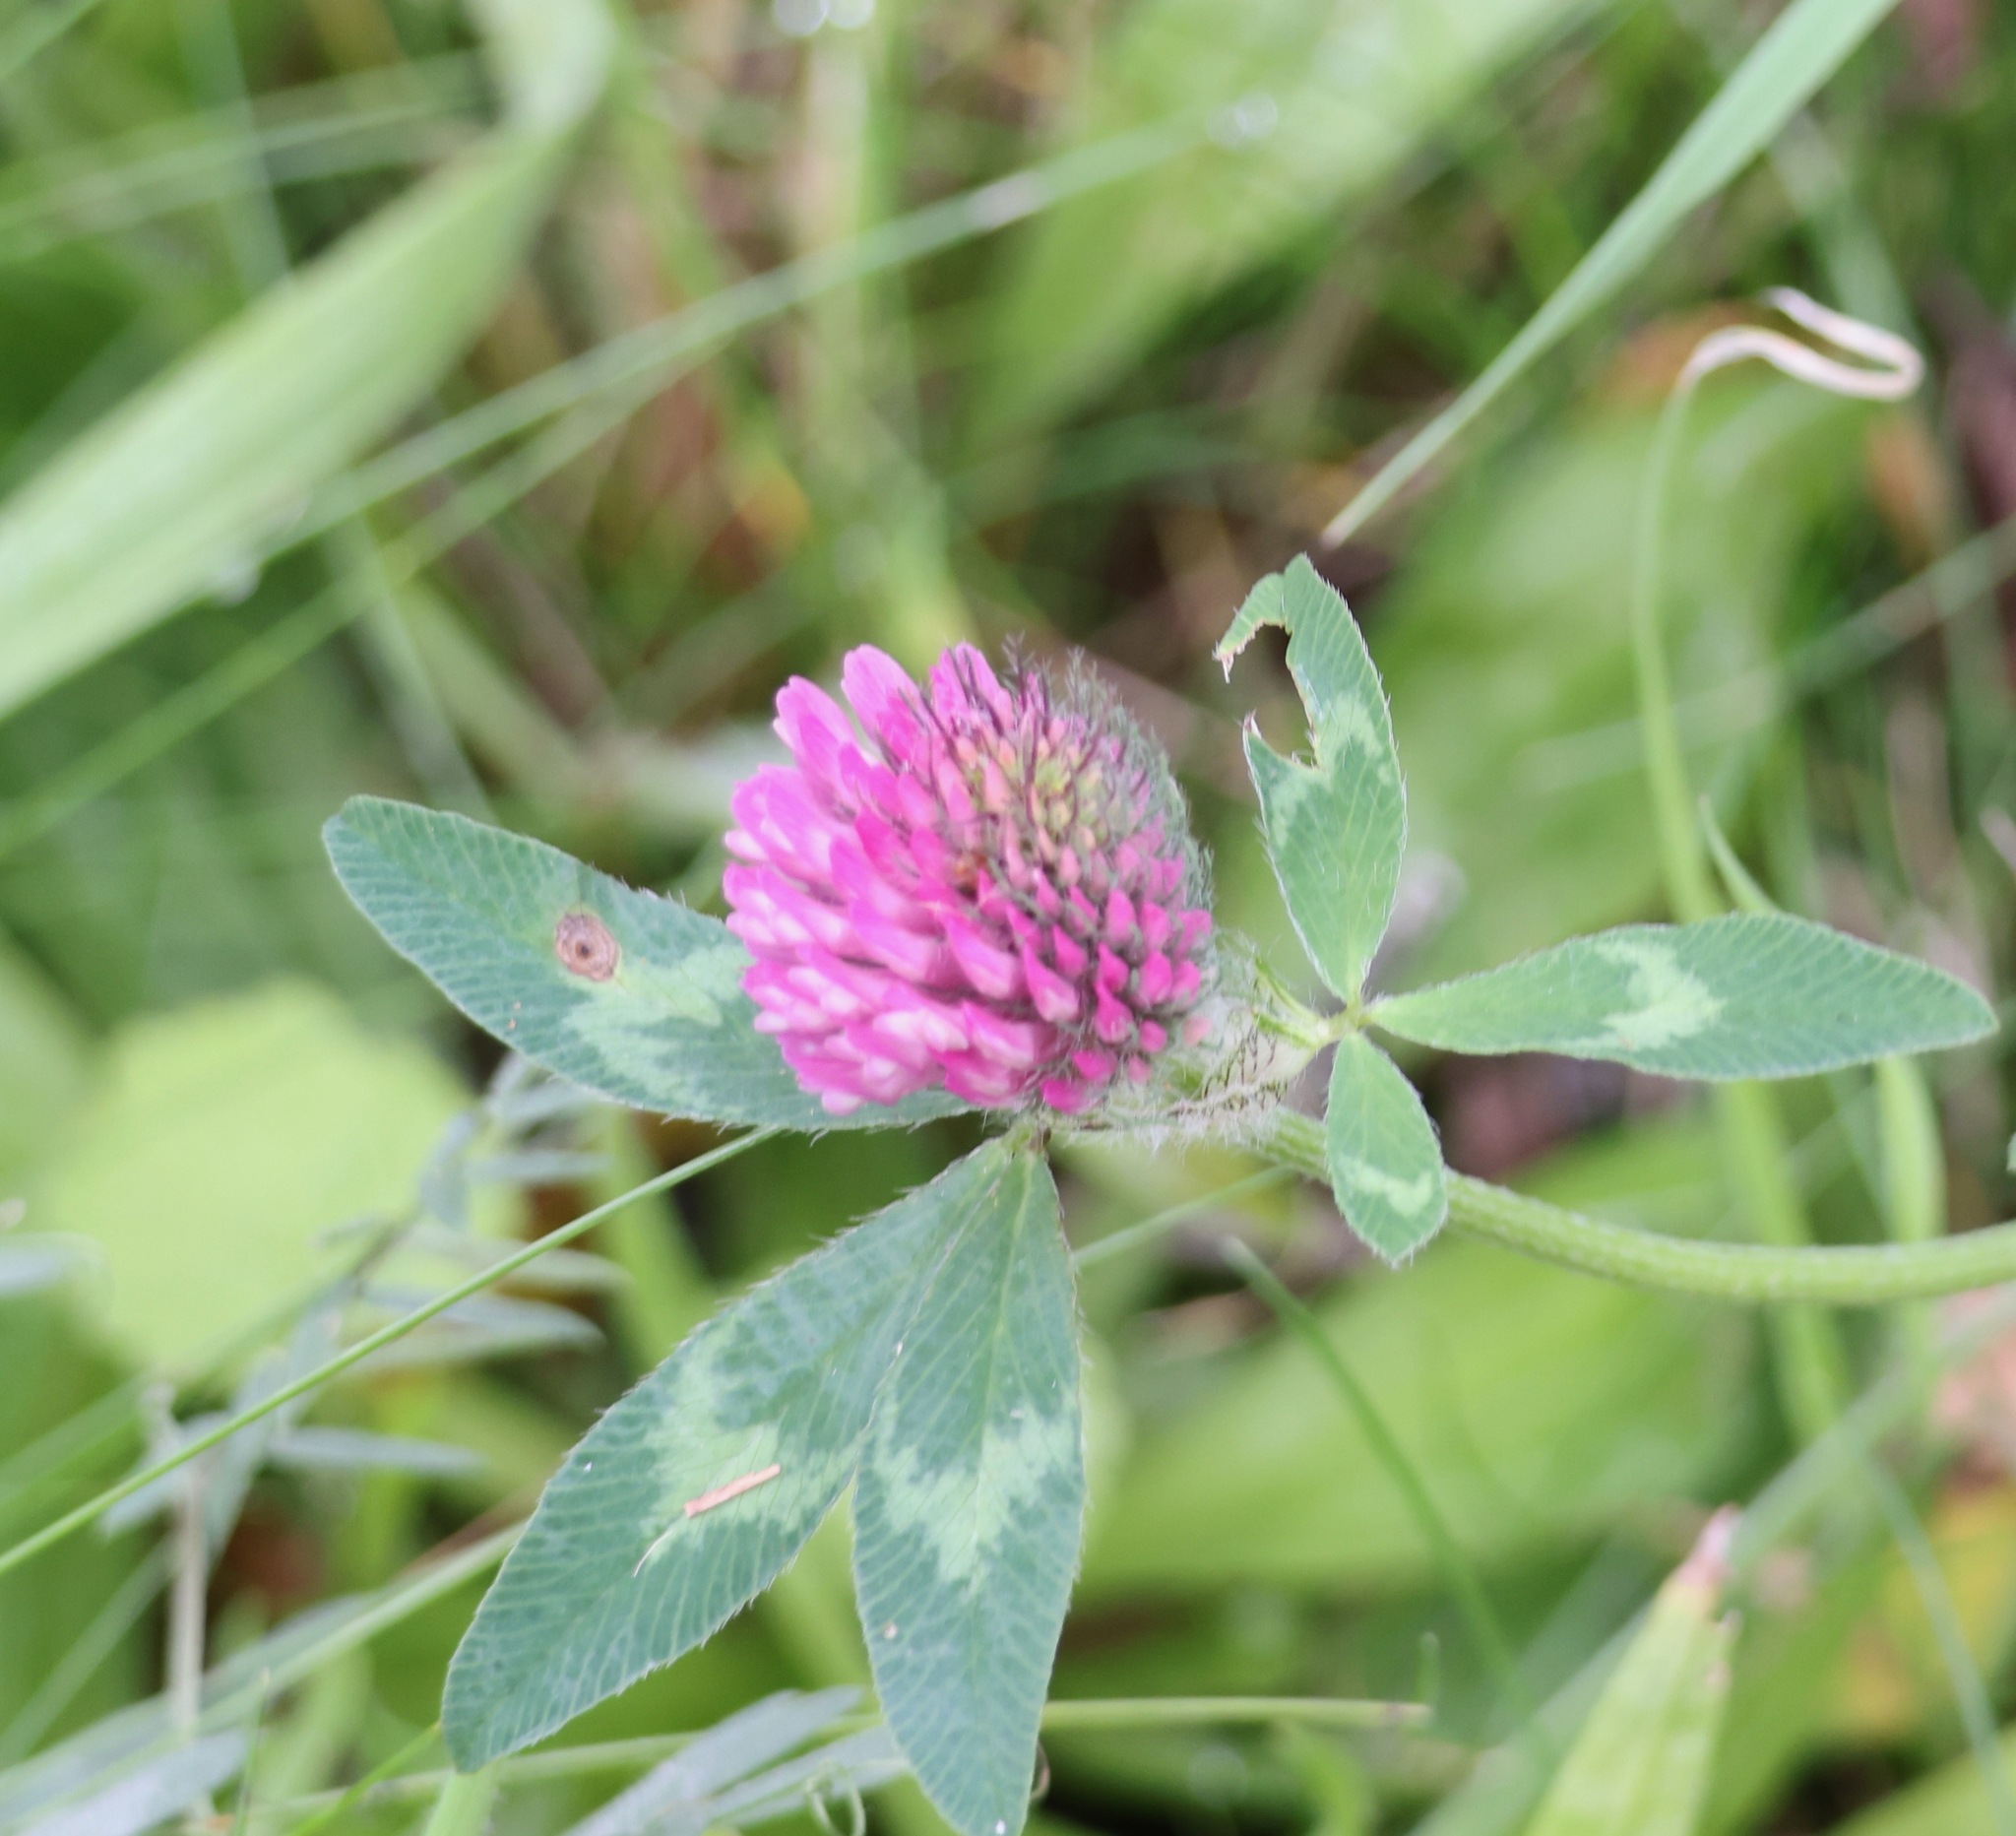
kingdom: Plantae
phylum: Tracheophyta
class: Magnoliopsida
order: Fabales
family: Fabaceae
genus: Trifolium
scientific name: Trifolium pratense
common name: Red clover
